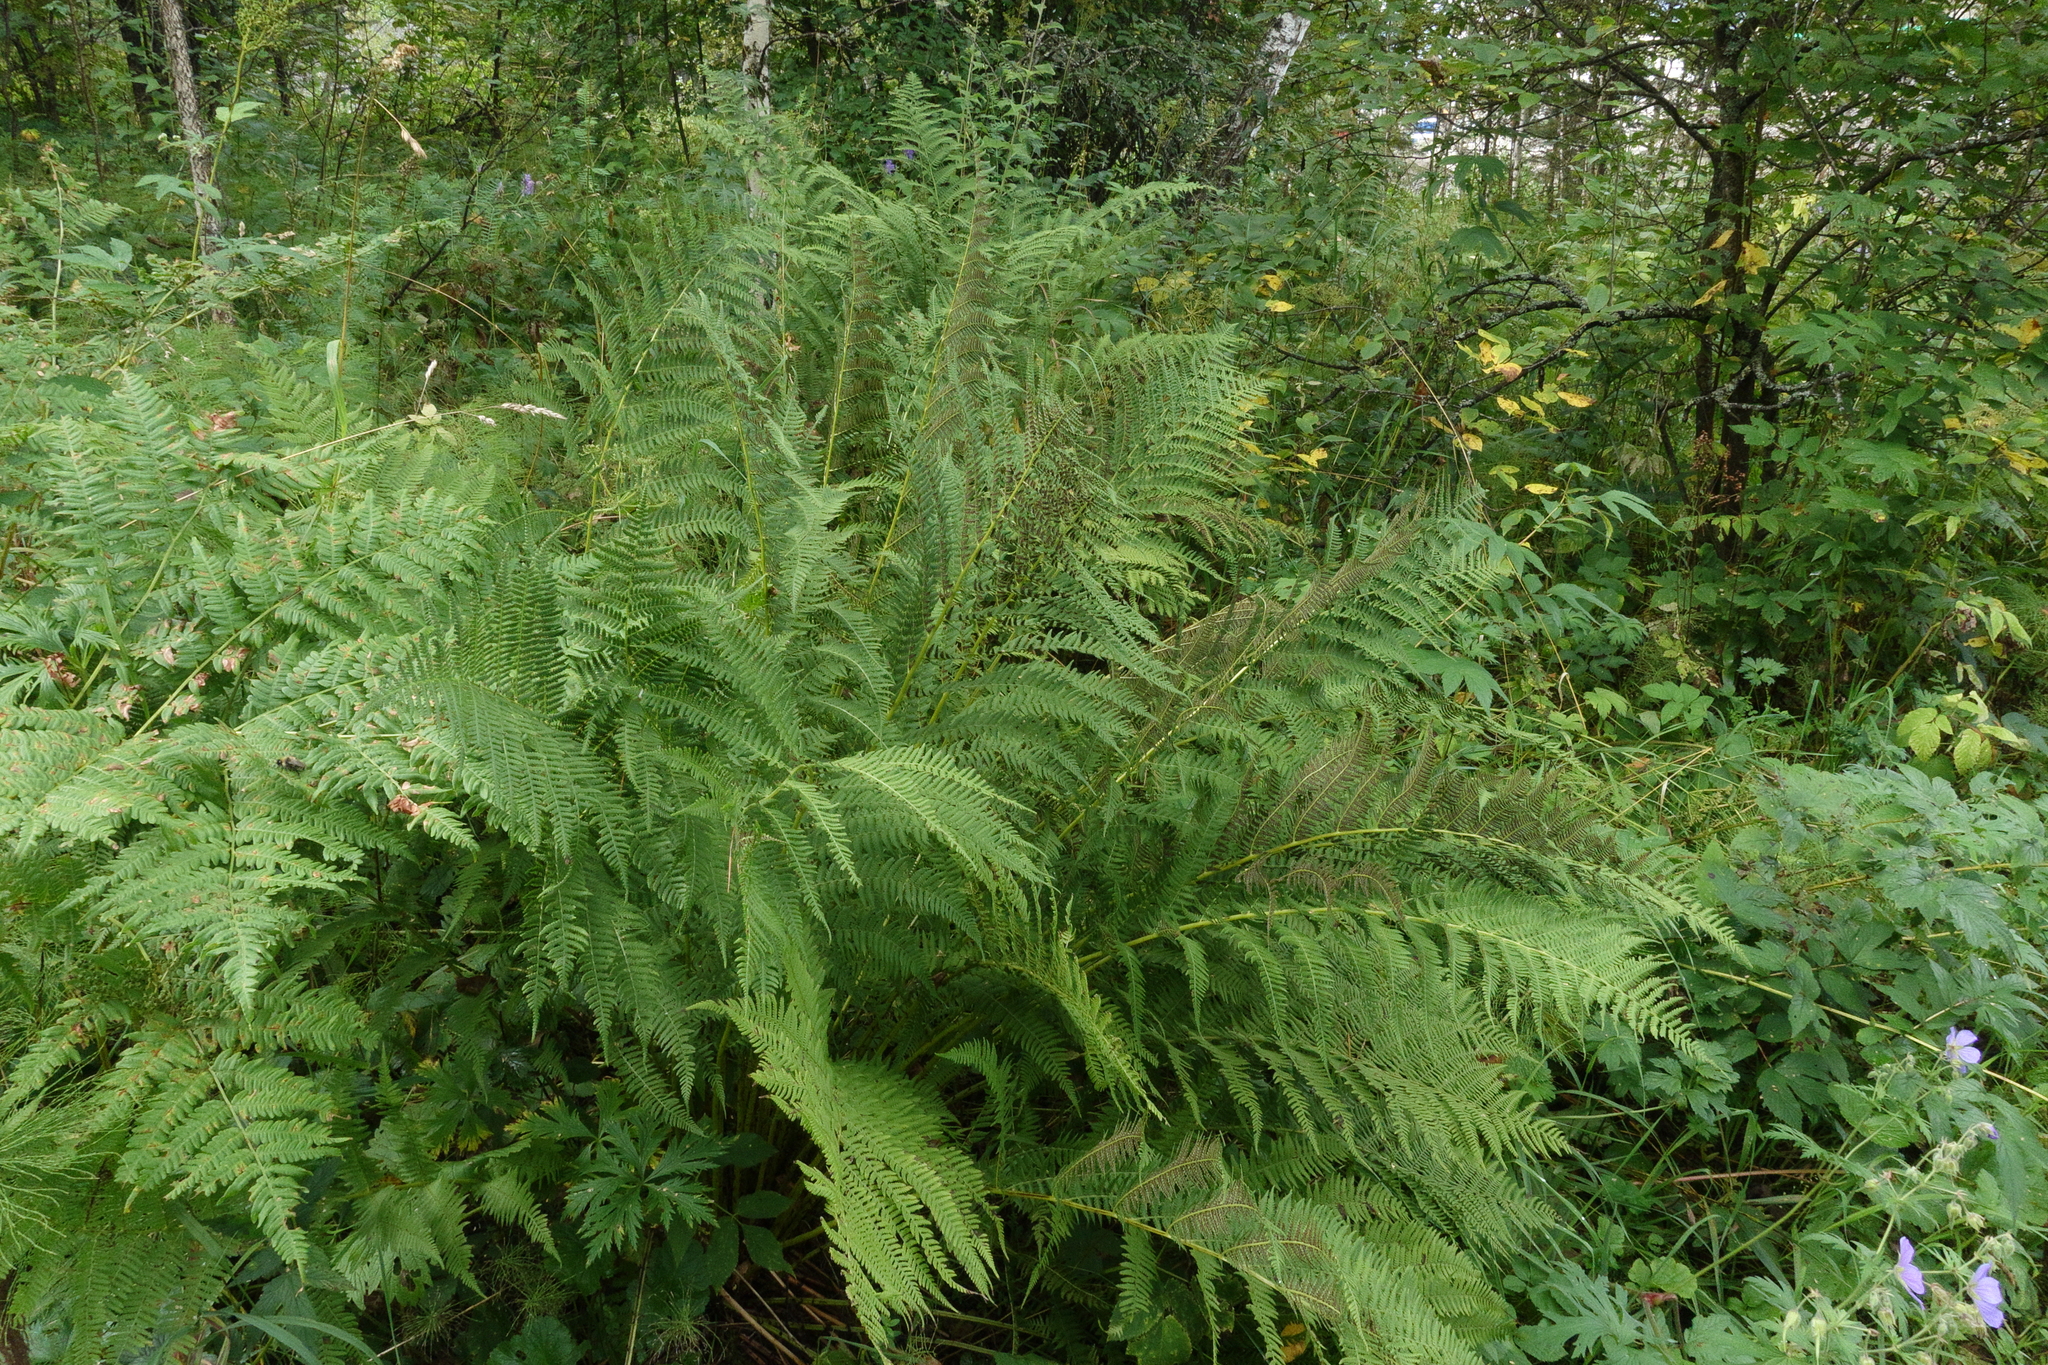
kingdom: Plantae
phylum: Tracheophyta
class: Polypodiopsida
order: Polypodiales
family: Athyriaceae
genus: Athyrium
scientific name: Athyrium filix-femina
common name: Lady fern
